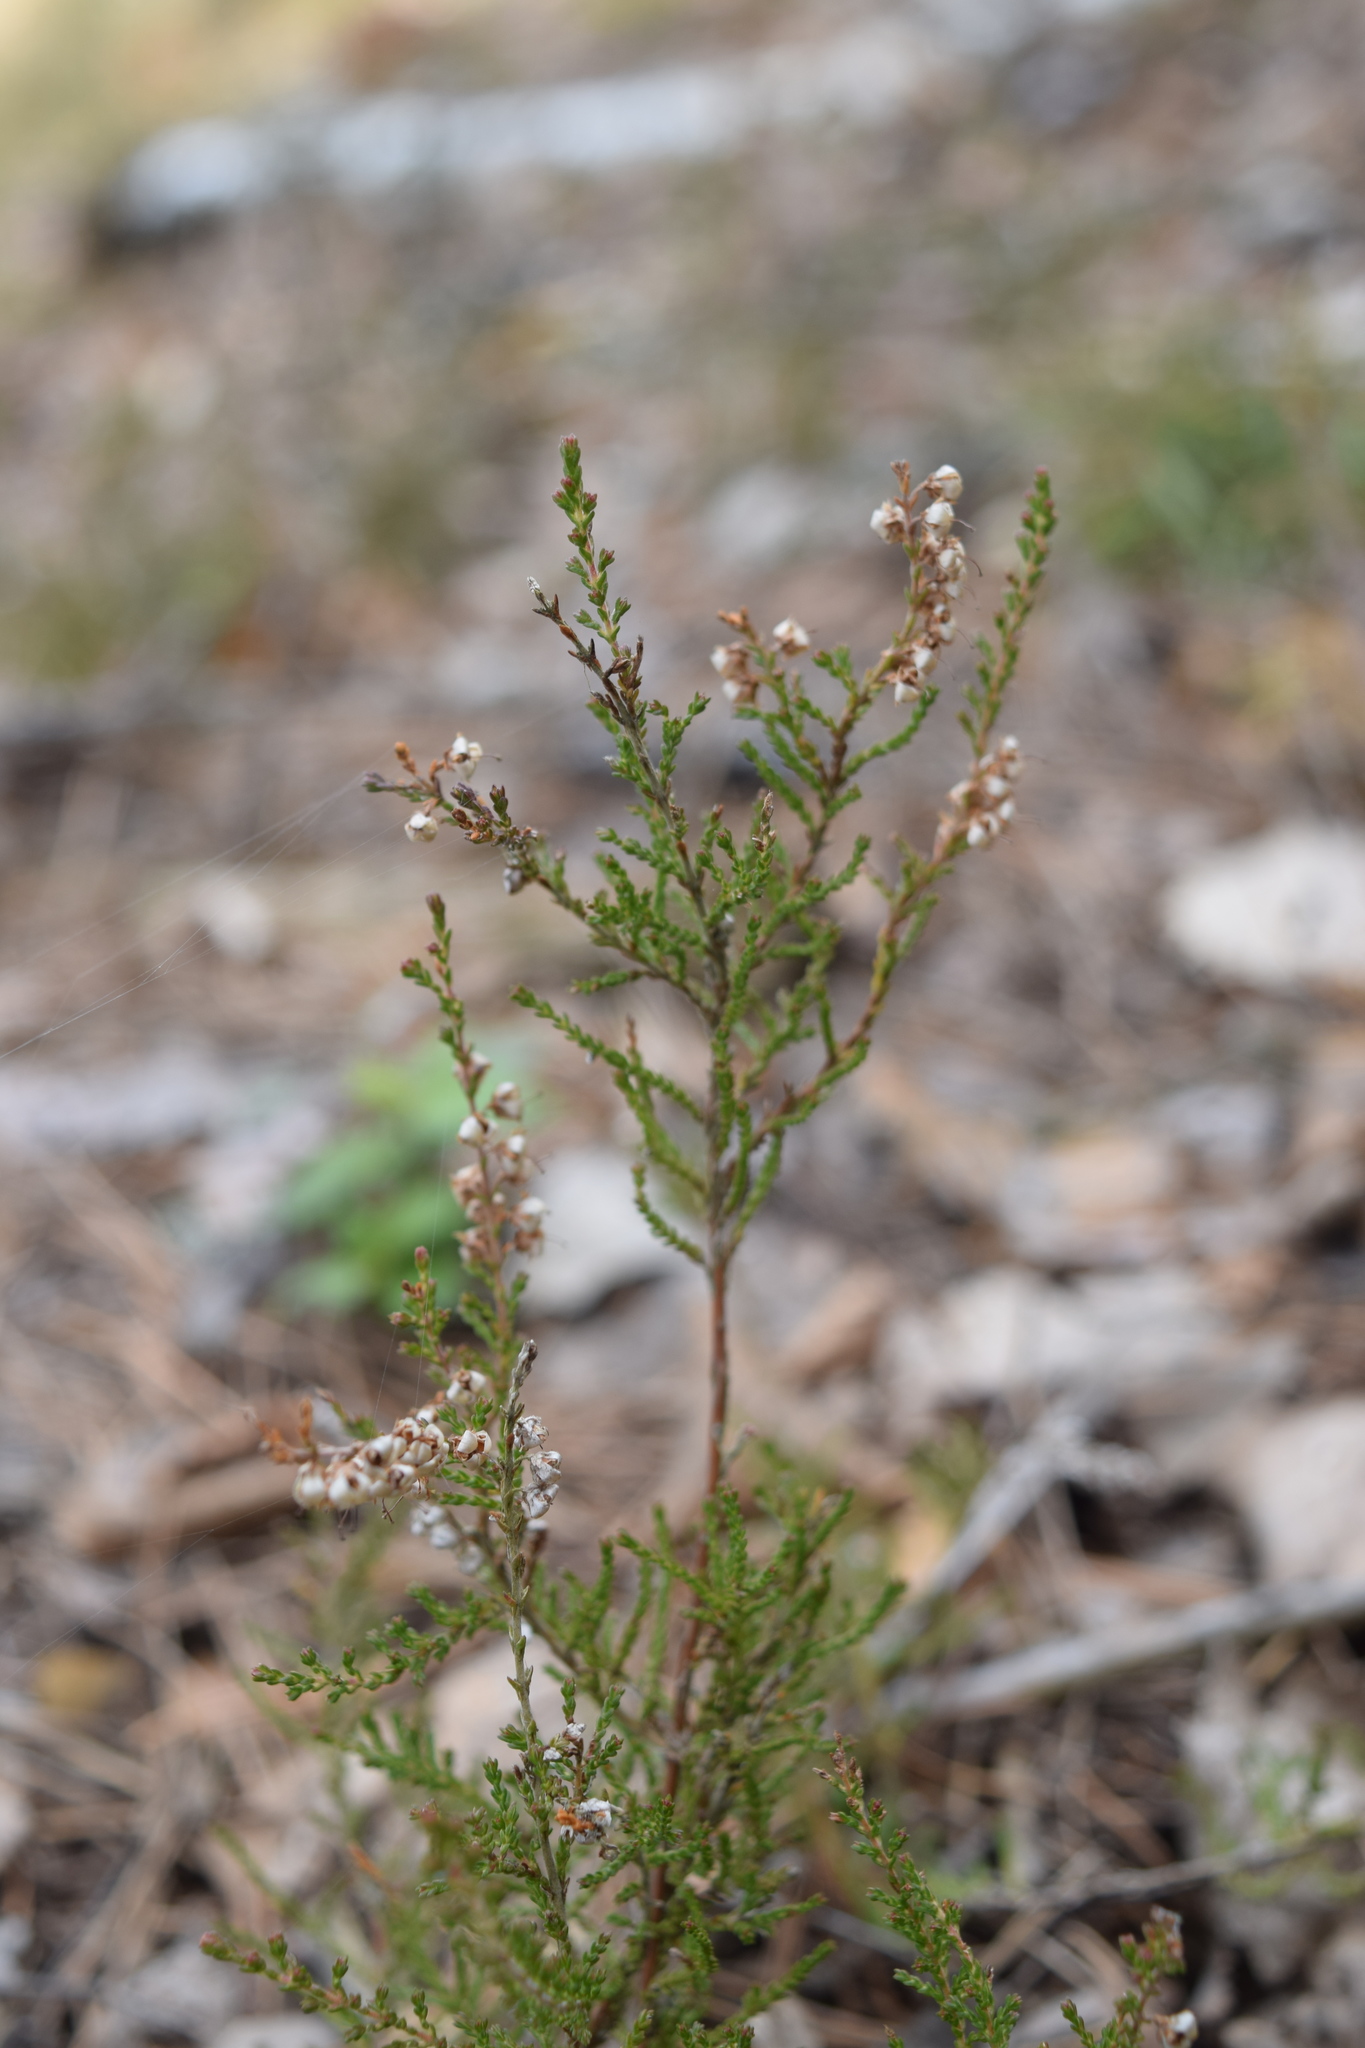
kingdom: Plantae
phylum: Tracheophyta
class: Magnoliopsida
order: Ericales
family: Ericaceae
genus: Calluna
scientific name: Calluna vulgaris
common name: Heather
